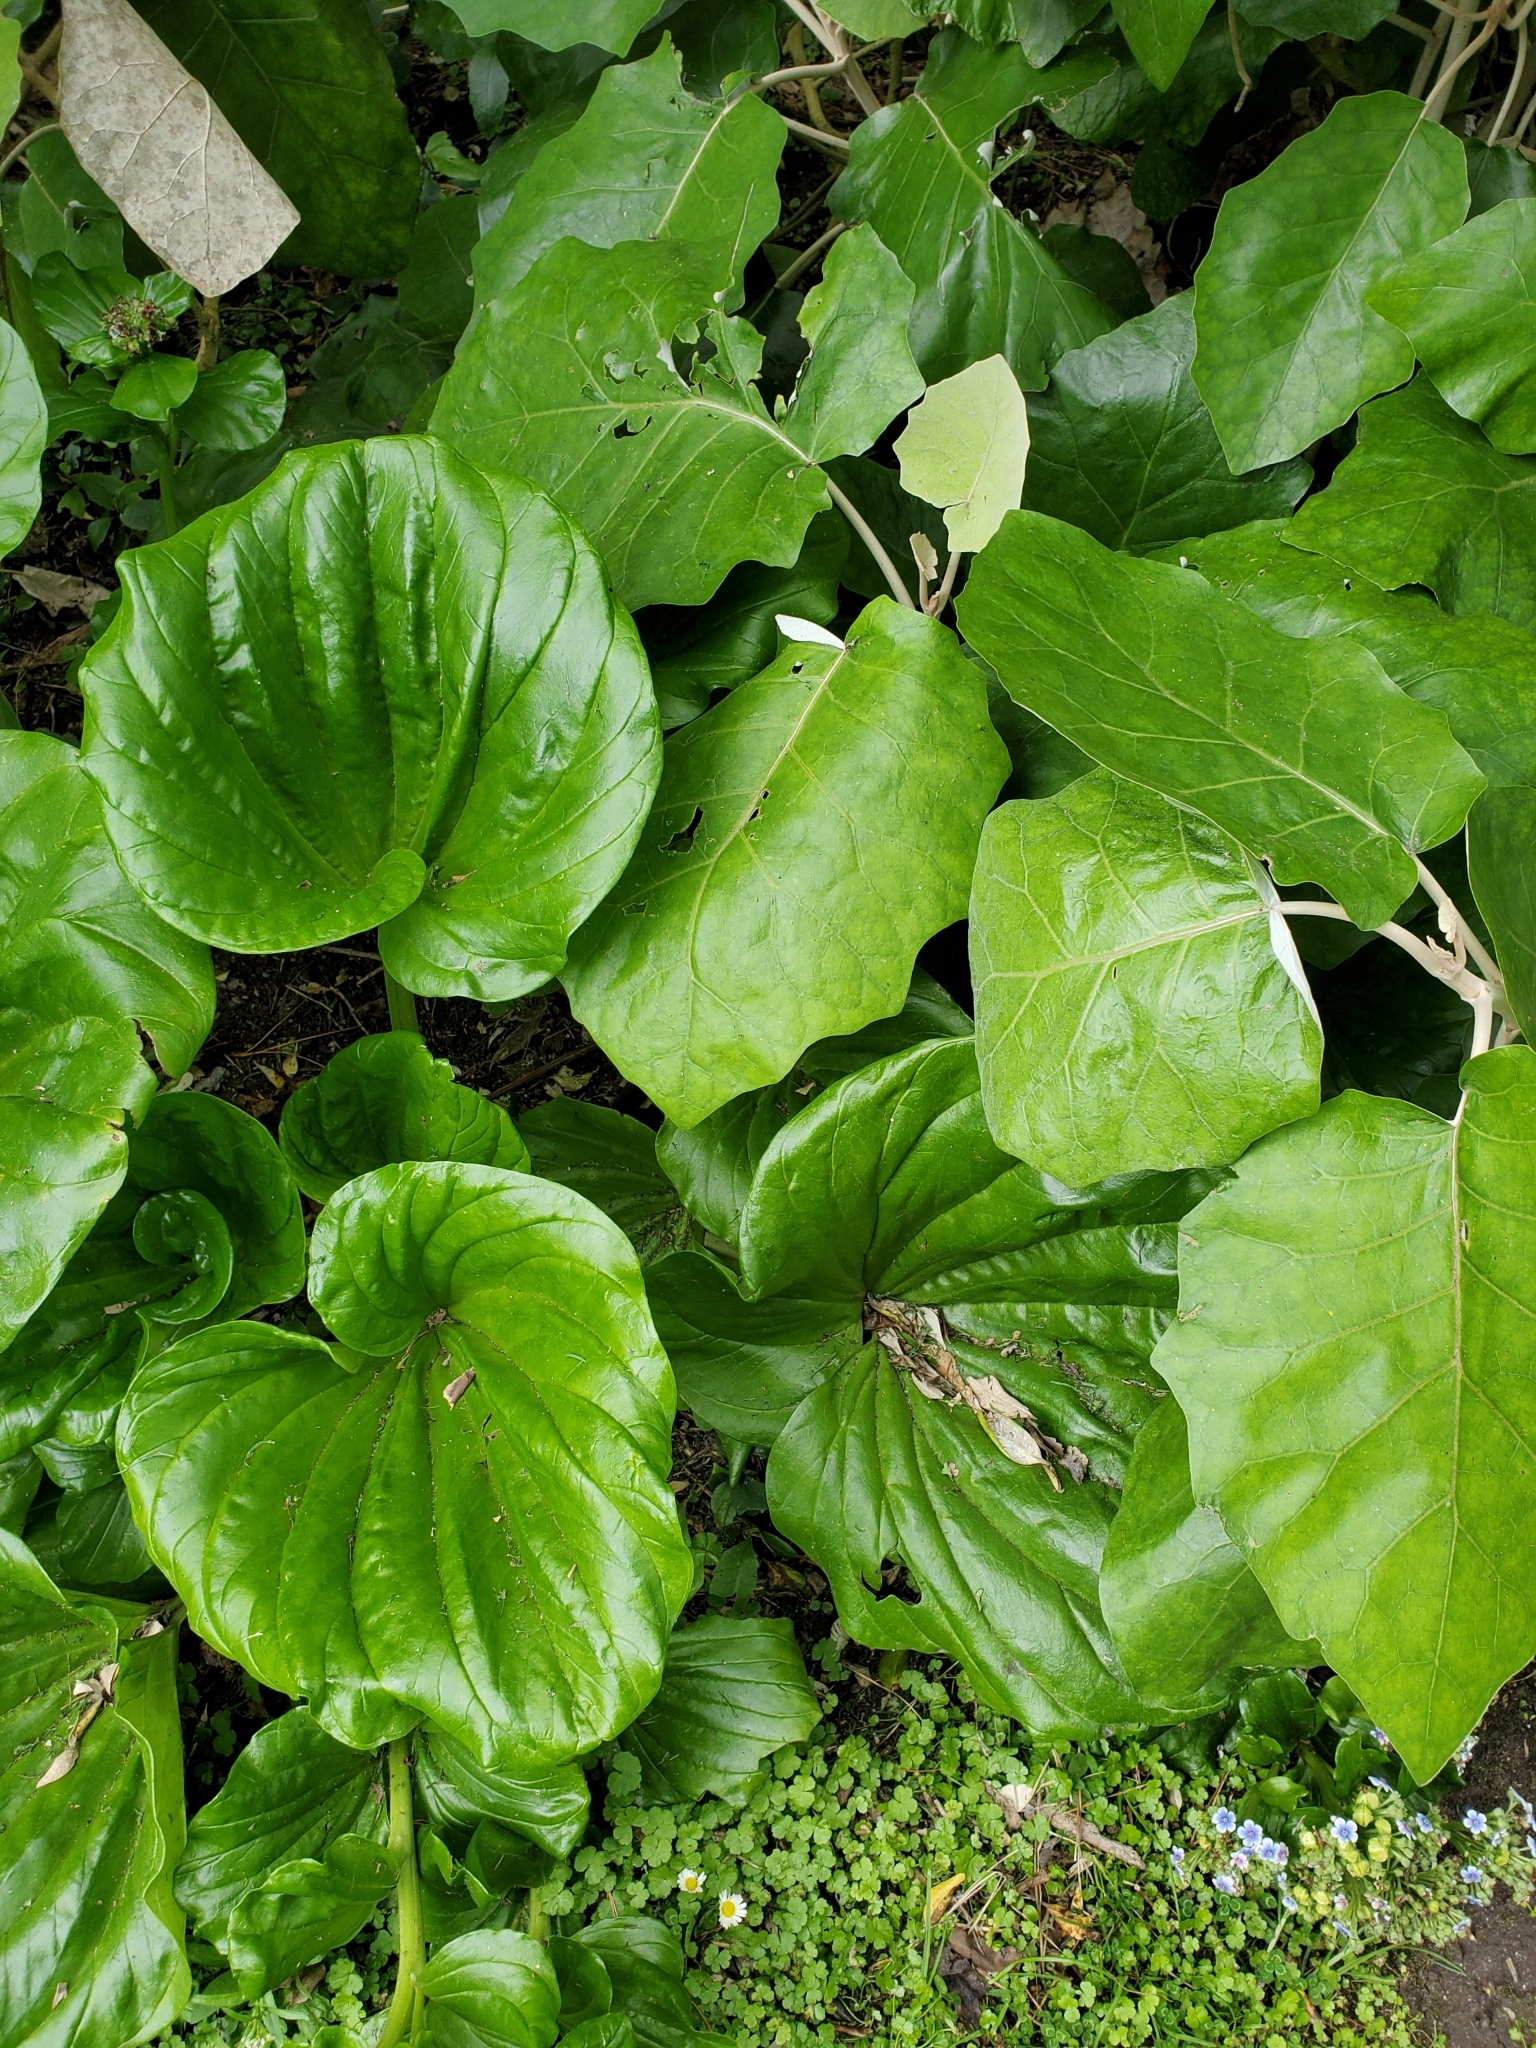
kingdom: Plantae
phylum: Tracheophyta
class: Magnoliopsida
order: Boraginales
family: Boraginaceae
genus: Myosotidium
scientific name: Myosotidium hortensia
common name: Giant forget-me-not
